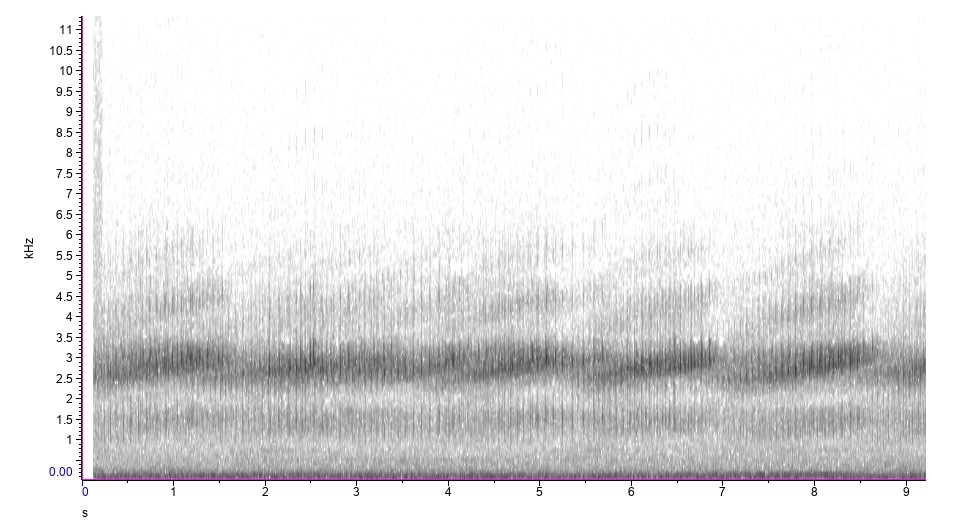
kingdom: Animalia
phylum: Chordata
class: Amphibia
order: Anura
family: Hylidae
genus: Pseudacris
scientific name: Pseudacris feriarum
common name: Upland chorus frog
